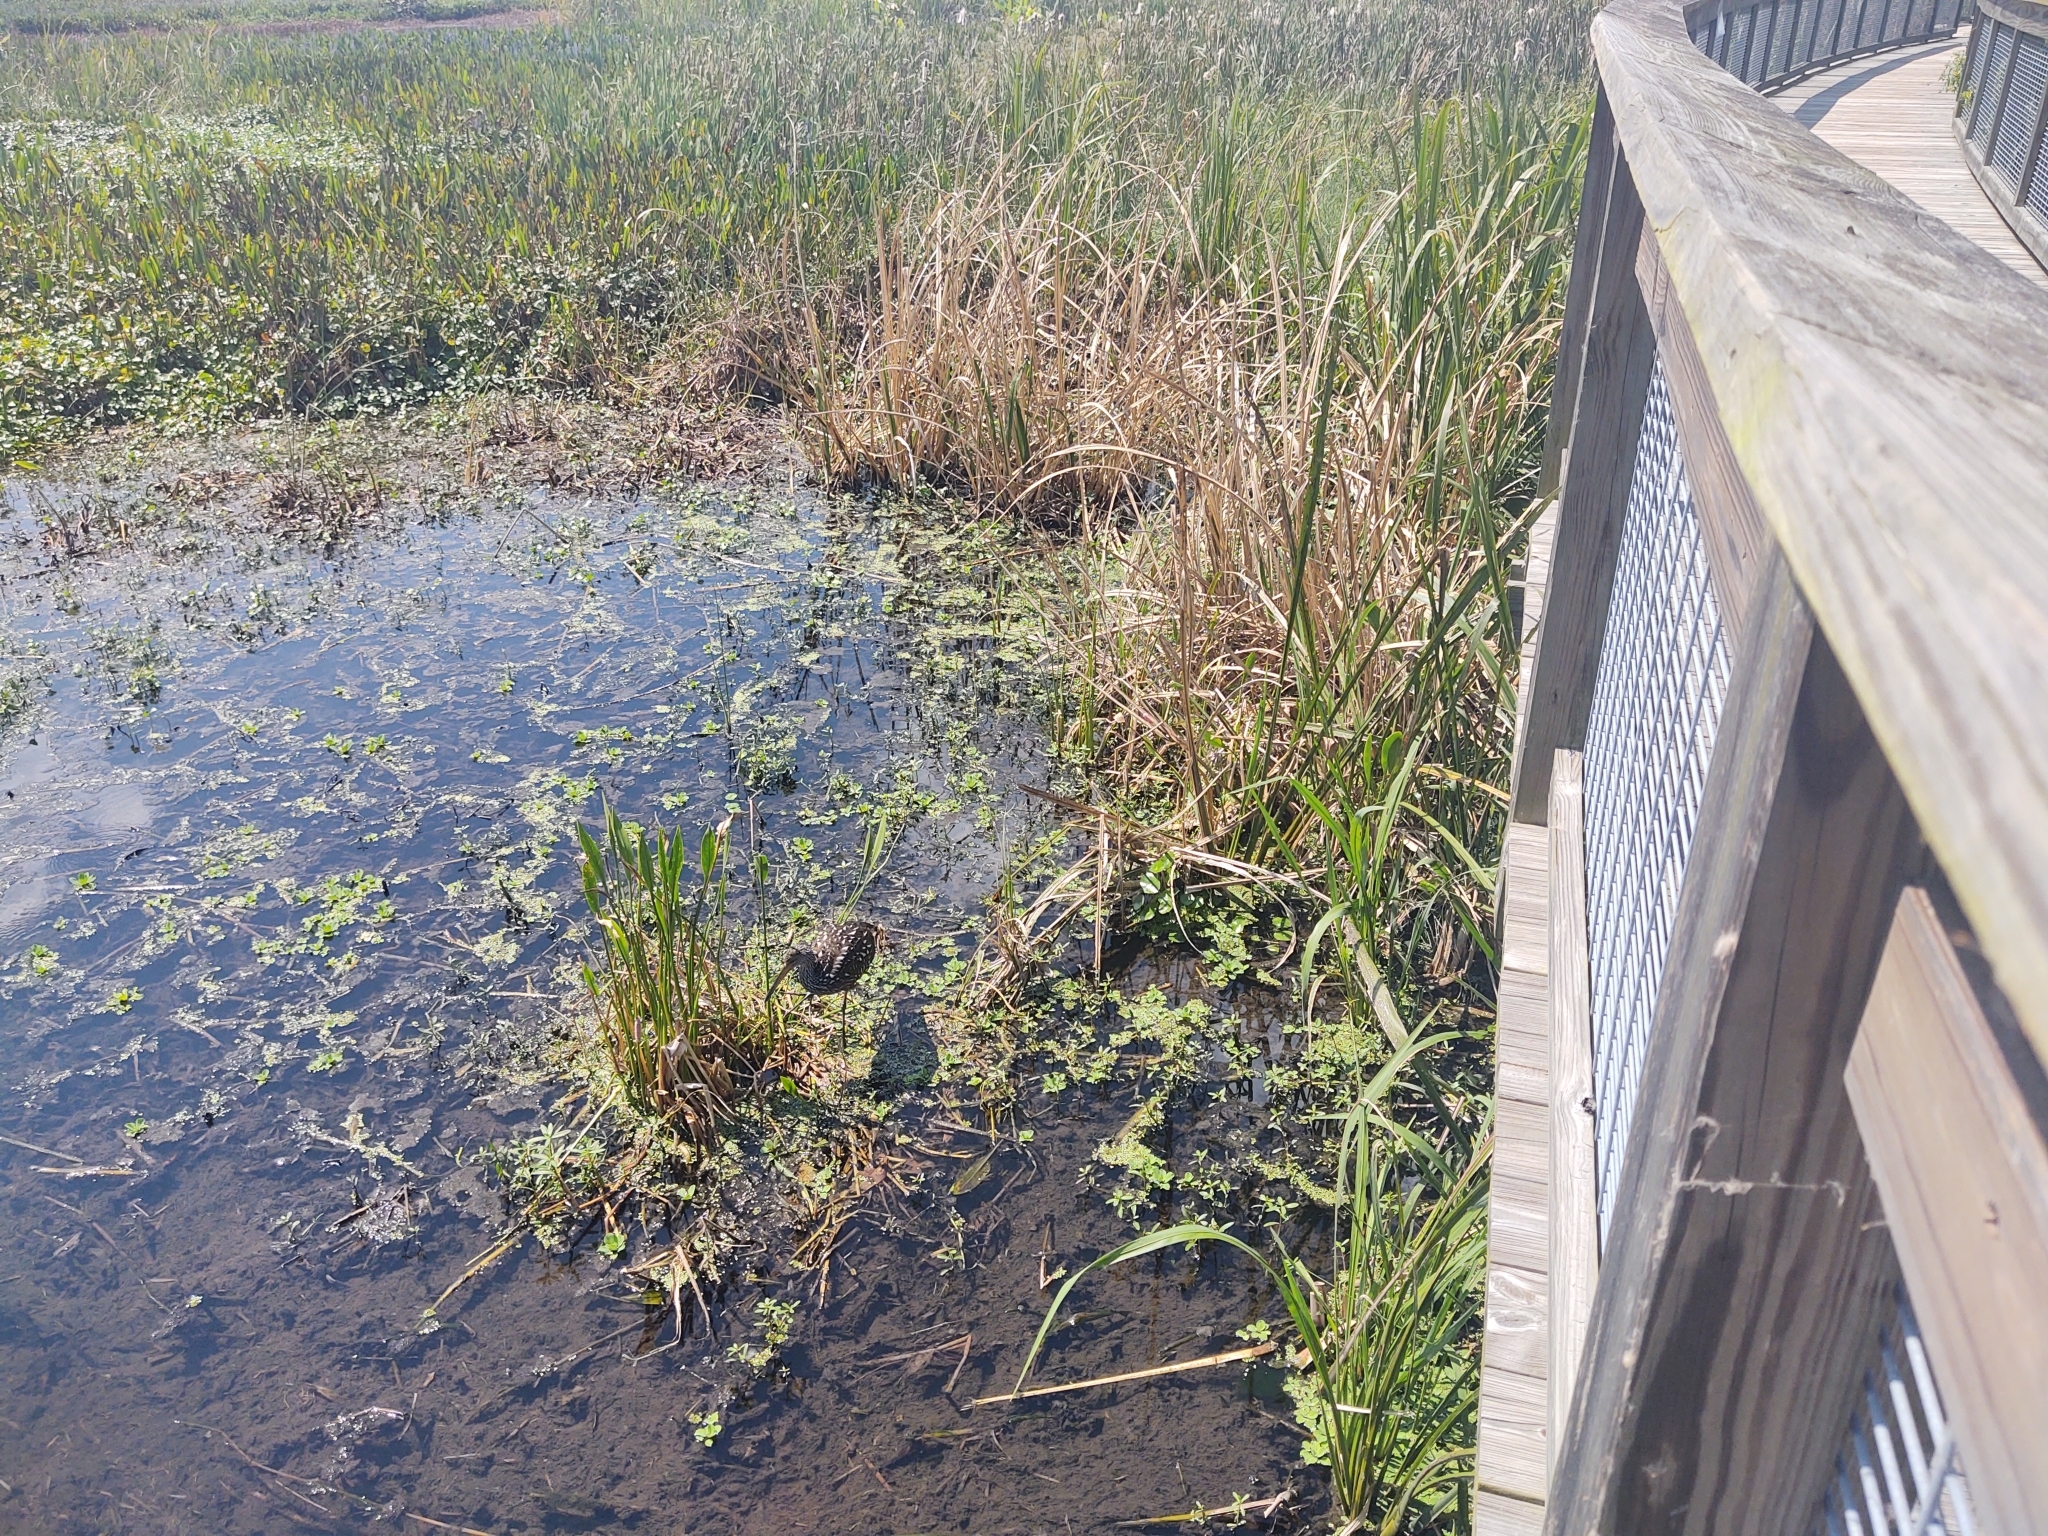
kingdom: Animalia
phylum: Chordata
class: Aves
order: Gruiformes
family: Aramidae
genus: Aramus
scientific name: Aramus guarauna
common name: Limpkin
